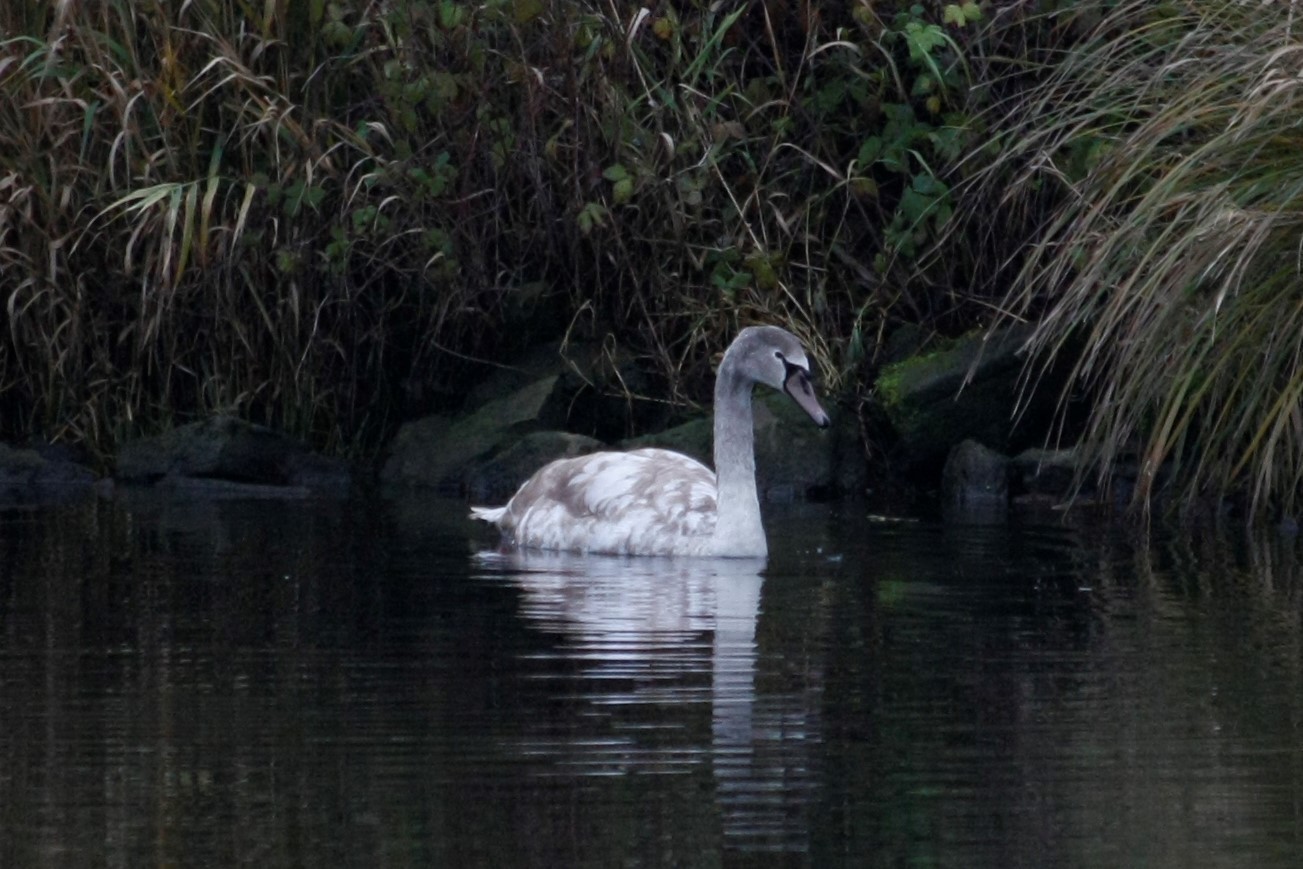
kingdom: Animalia
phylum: Chordata
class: Aves
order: Anseriformes
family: Anatidae
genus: Cygnus
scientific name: Cygnus olor
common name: Mute swan
